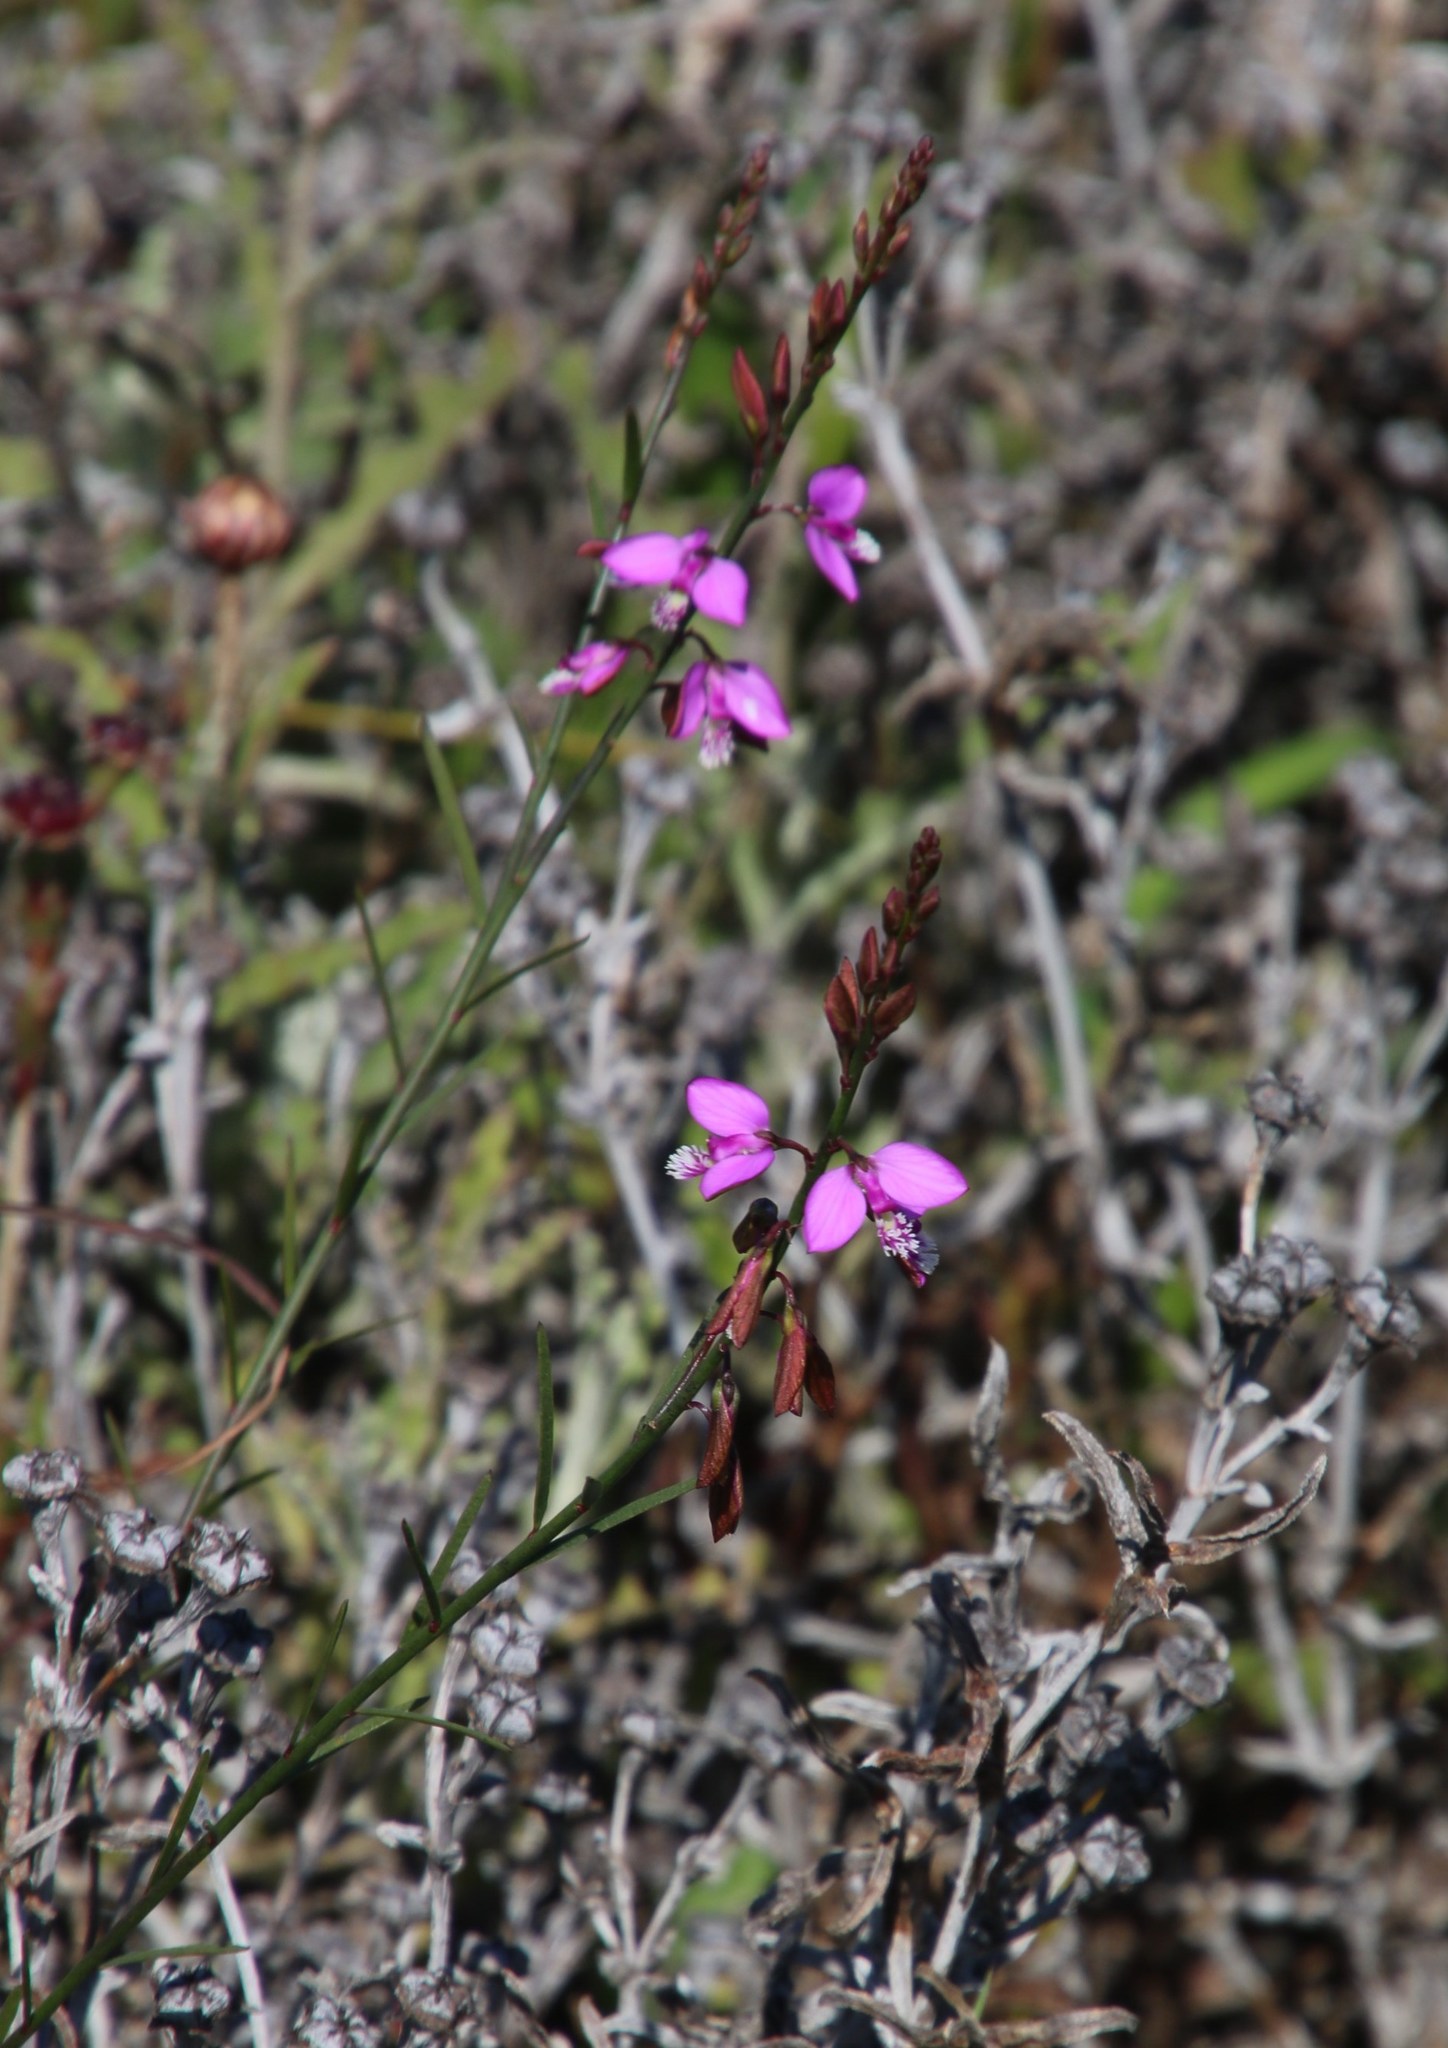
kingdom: Plantae
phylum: Tracheophyta
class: Magnoliopsida
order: Fabales
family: Polygalaceae
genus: Polygala
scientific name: Polygala garcini
